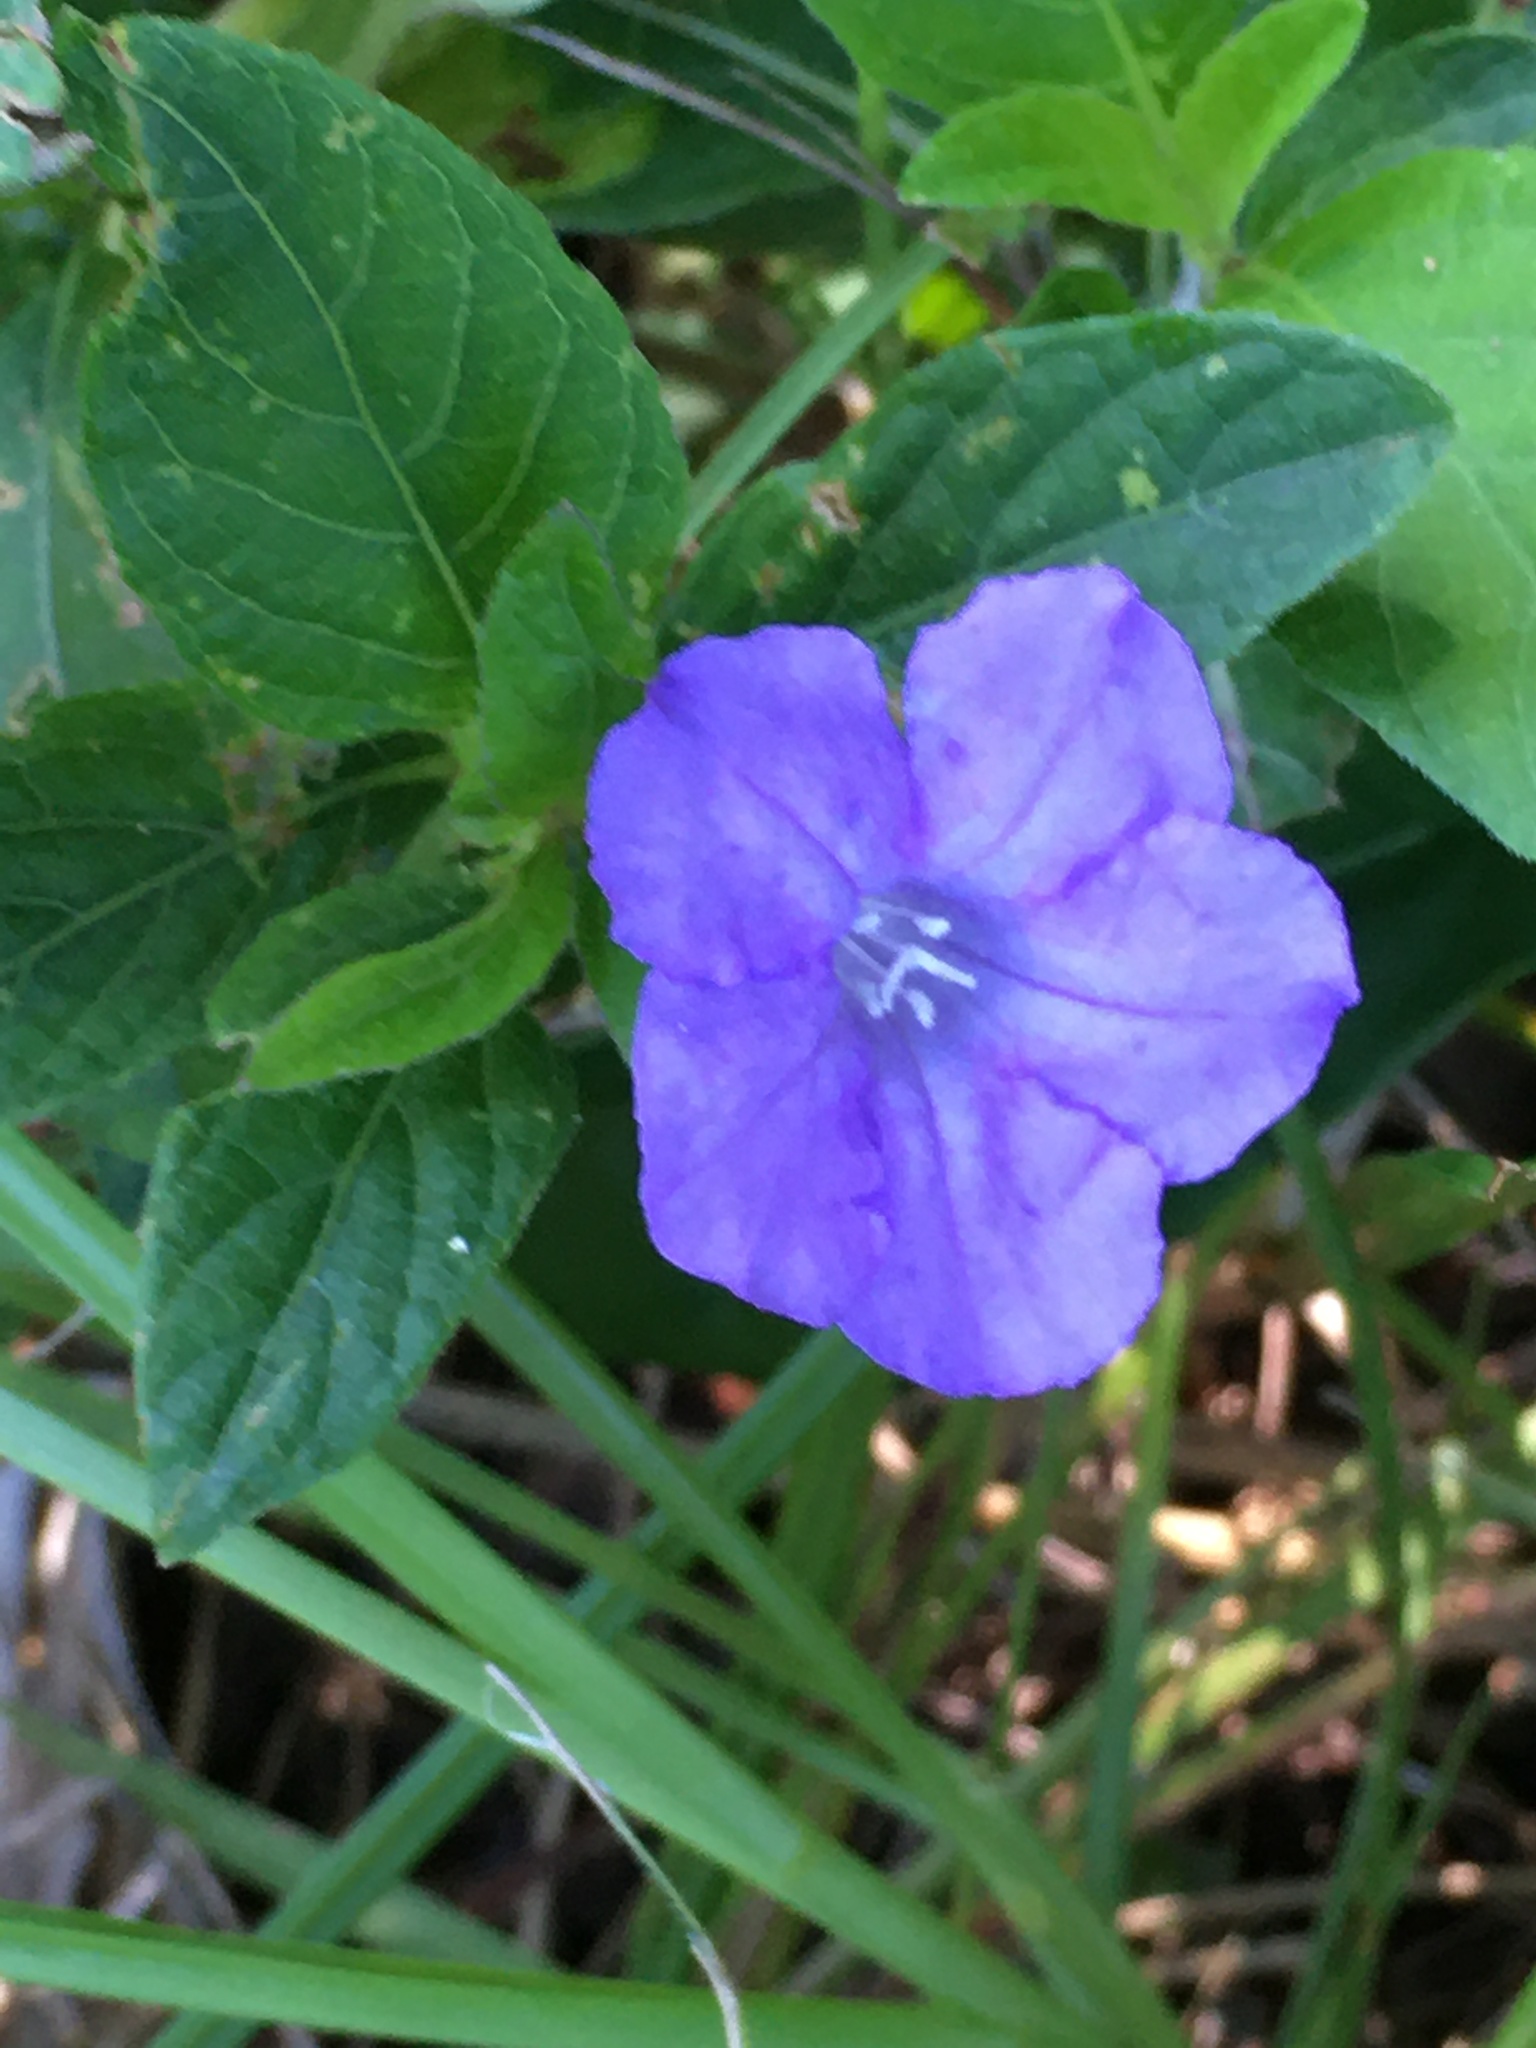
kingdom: Plantae
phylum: Tracheophyta
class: Magnoliopsida
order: Lamiales
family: Acanthaceae
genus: Ruellia
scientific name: Ruellia caroliniensis
